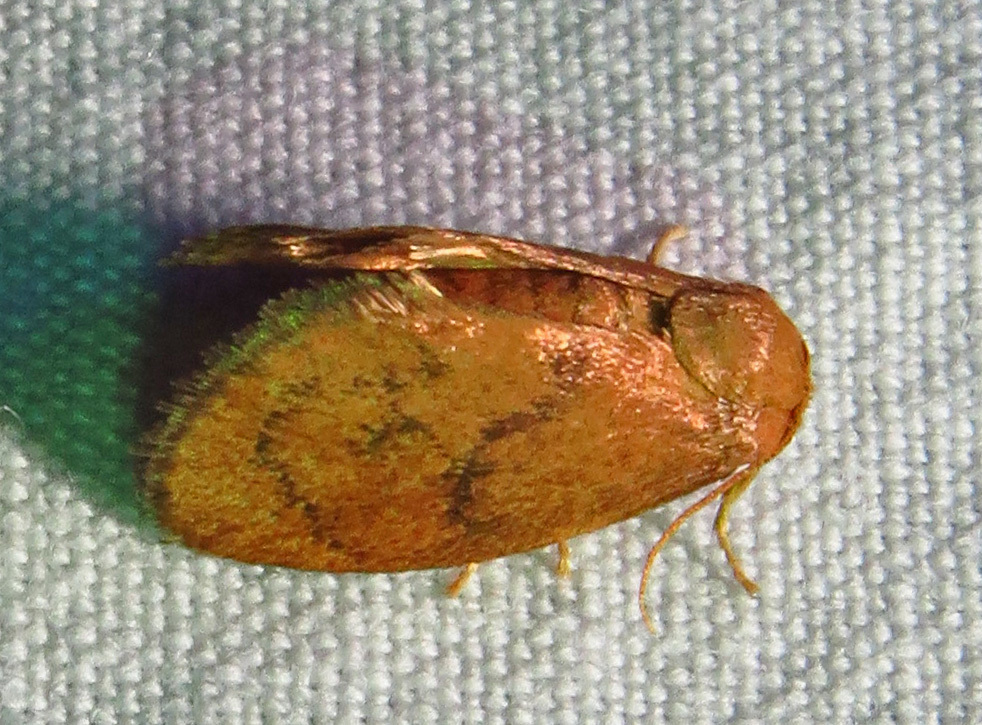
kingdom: Animalia
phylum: Arthropoda
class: Insecta
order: Lepidoptera
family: Limacodidae
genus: Heterogenea
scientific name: Heterogenea shurtleffi
